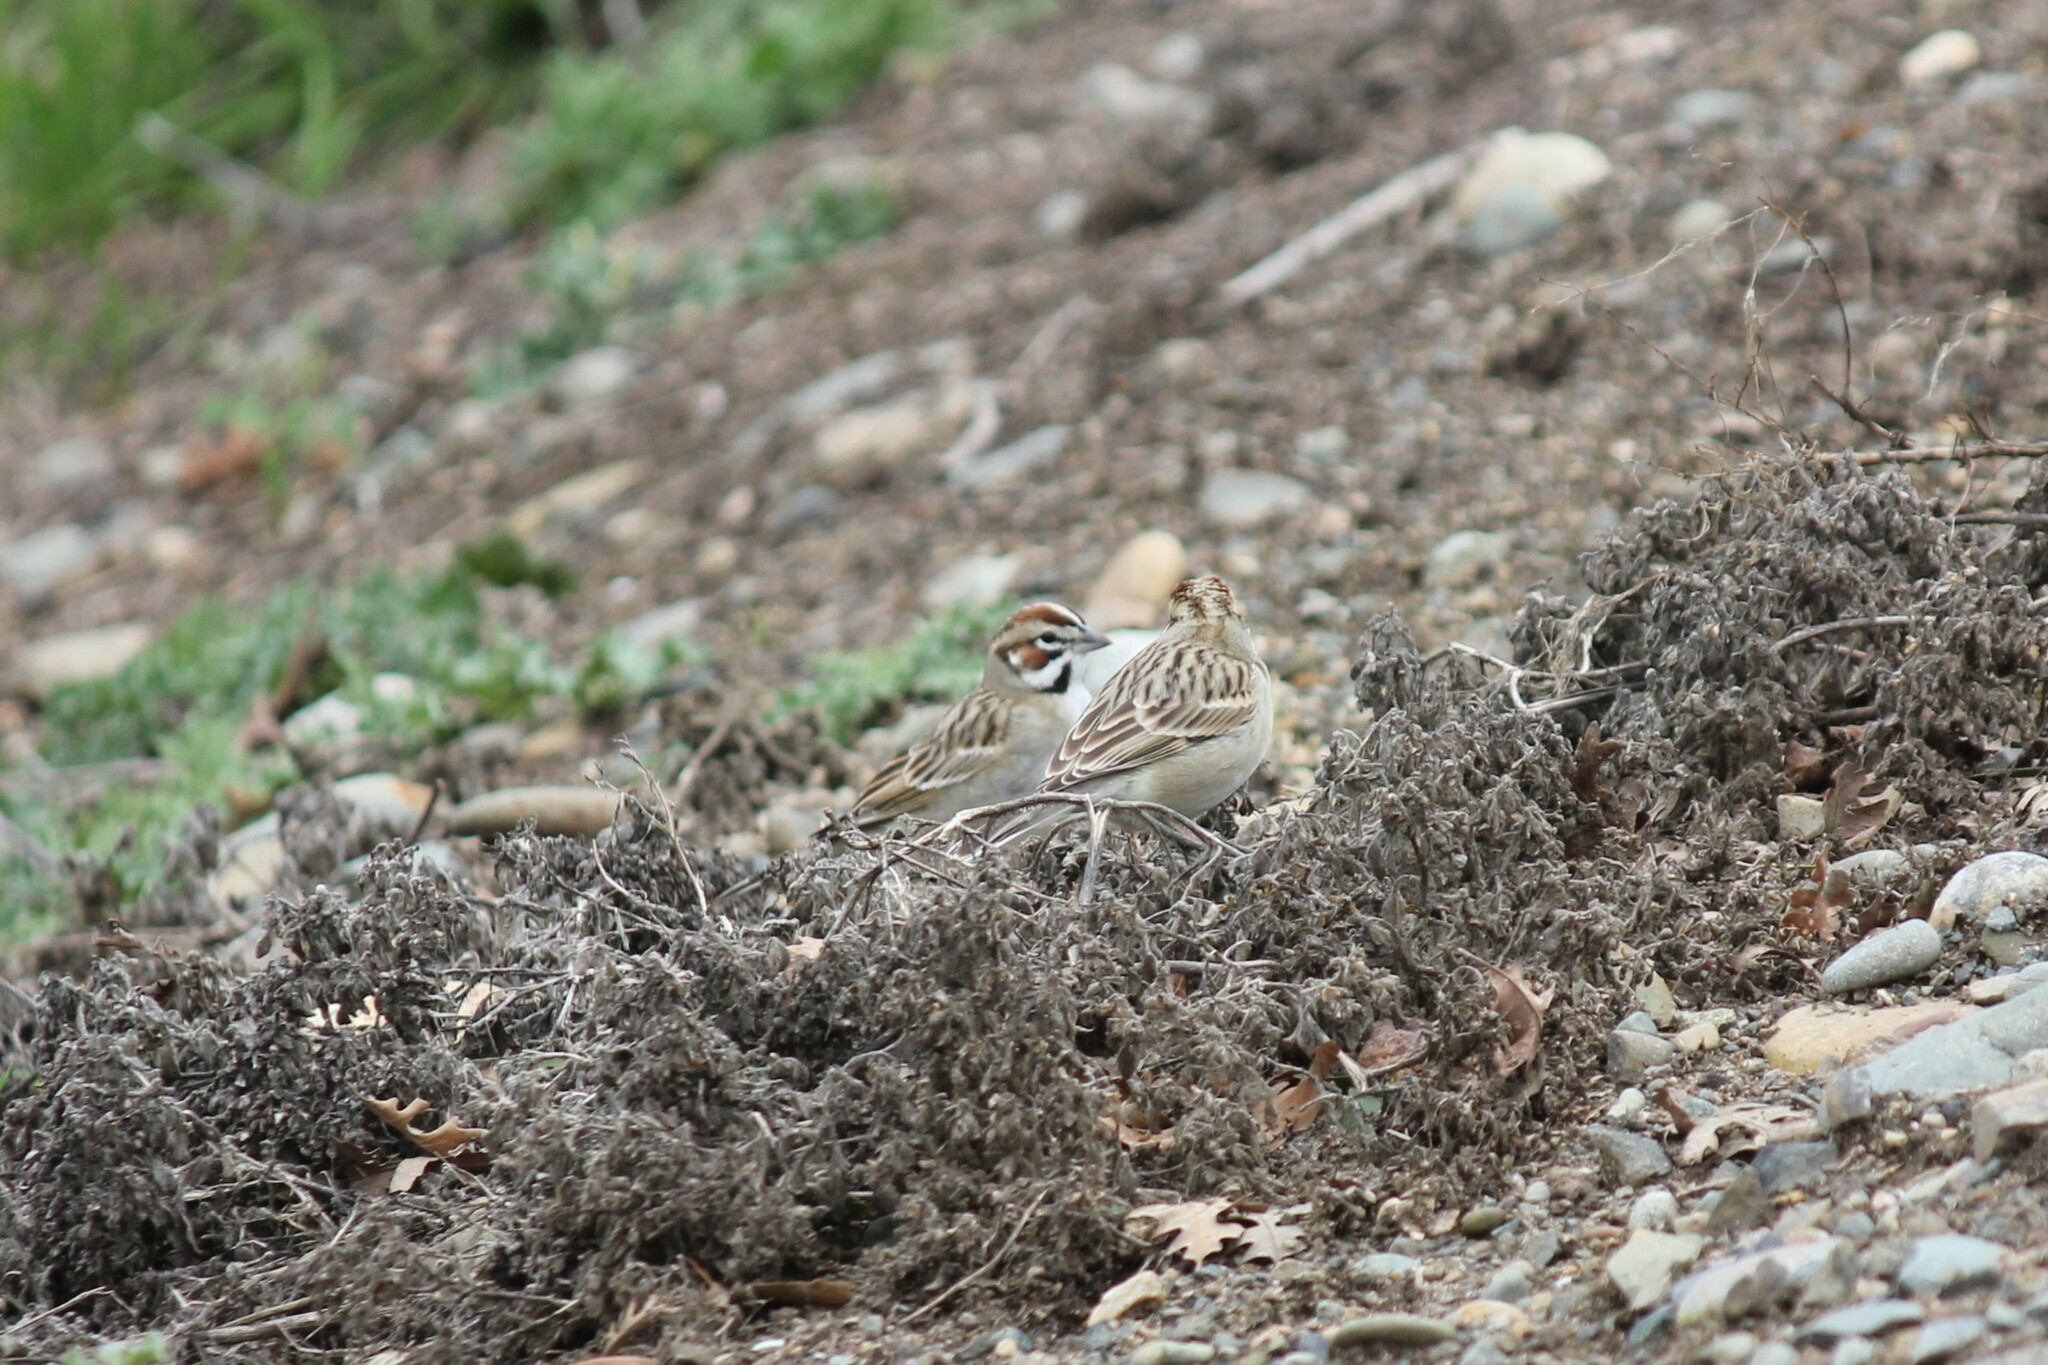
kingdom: Animalia
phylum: Chordata
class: Aves
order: Passeriformes
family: Passerellidae
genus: Chondestes
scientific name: Chondestes grammacus
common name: Lark sparrow
